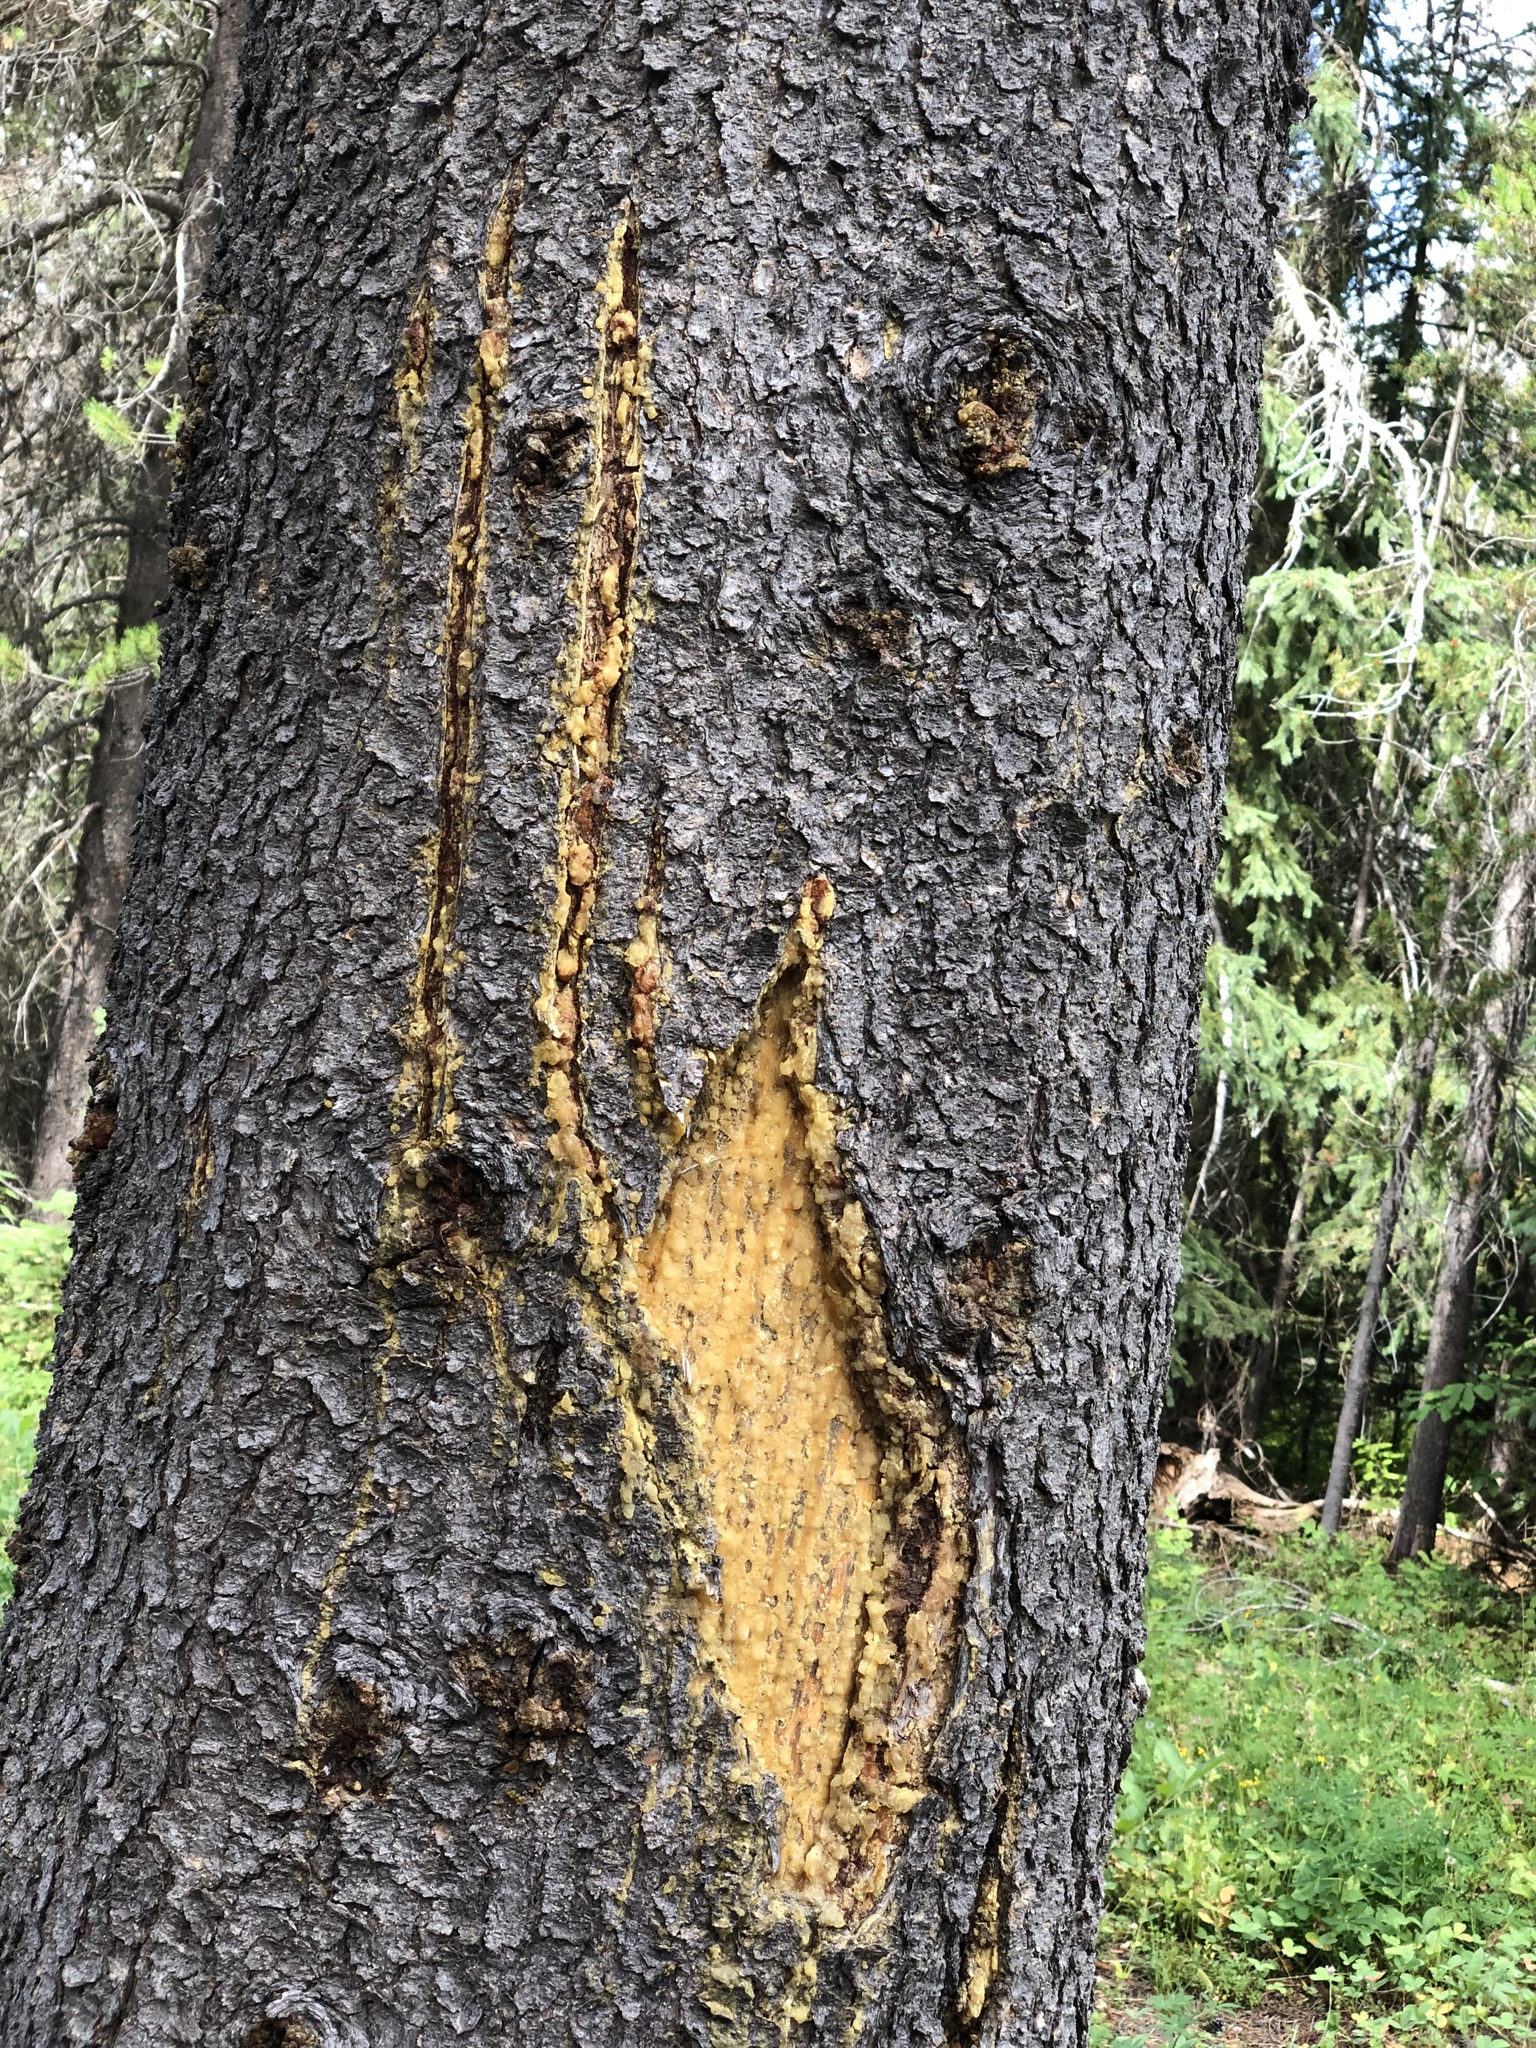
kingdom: Animalia
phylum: Chordata
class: Mammalia
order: Carnivora
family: Ursidae
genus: Ursus
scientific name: Ursus americanus
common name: American black bear
